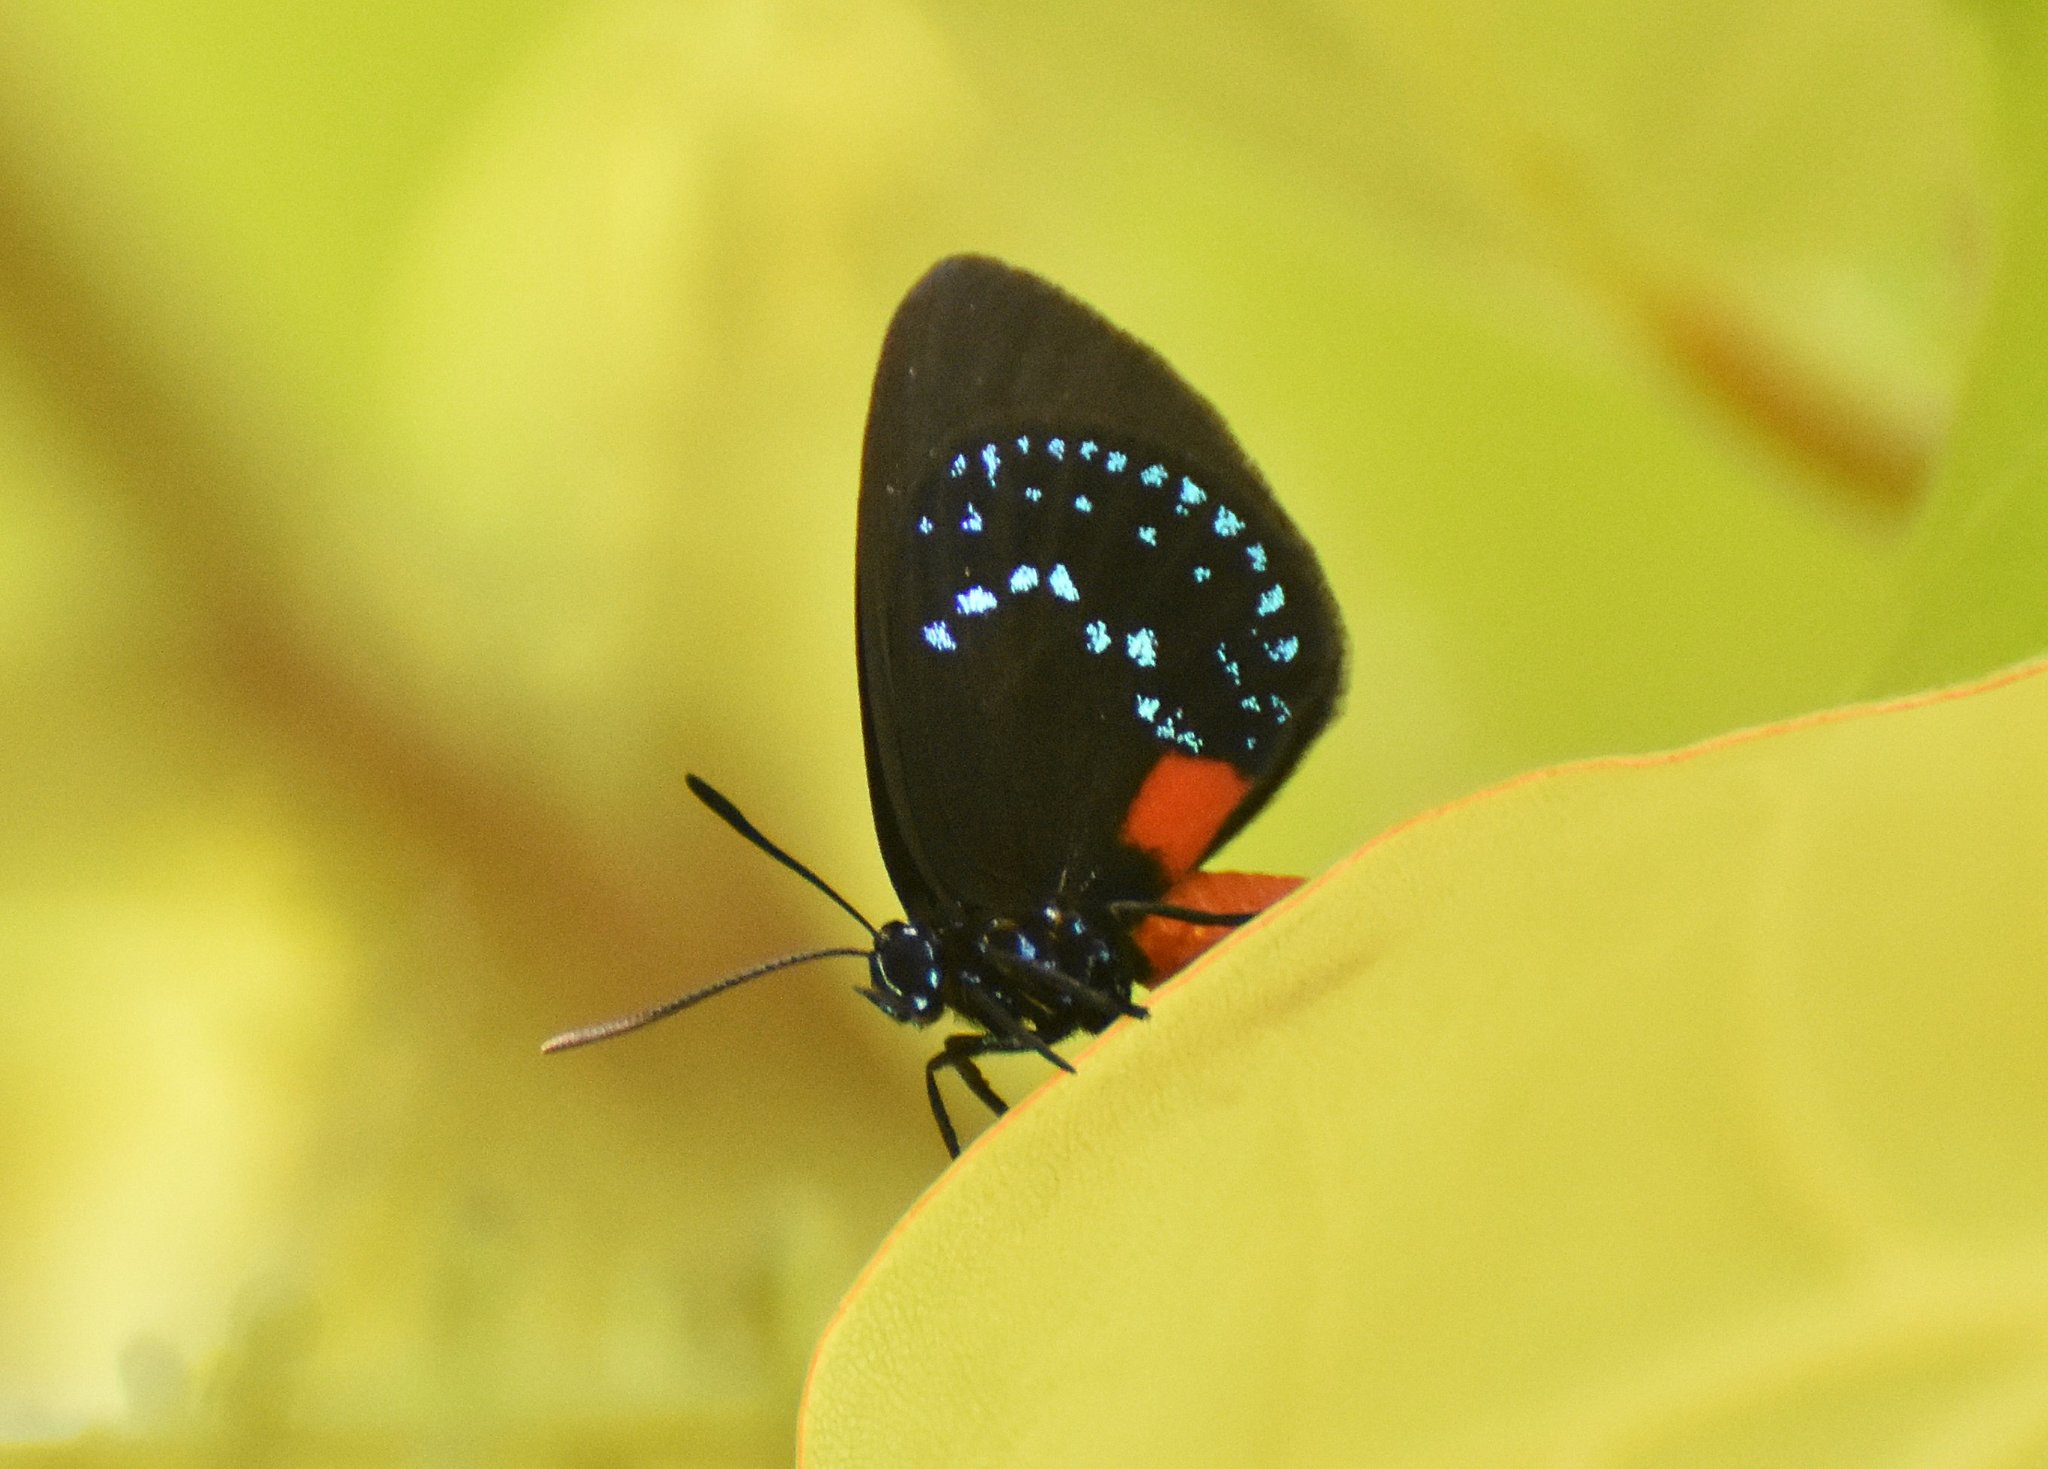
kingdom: Animalia
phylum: Arthropoda
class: Insecta
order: Lepidoptera
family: Lycaenidae
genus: Eumaeus
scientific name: Eumaeus atala
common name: Atala
